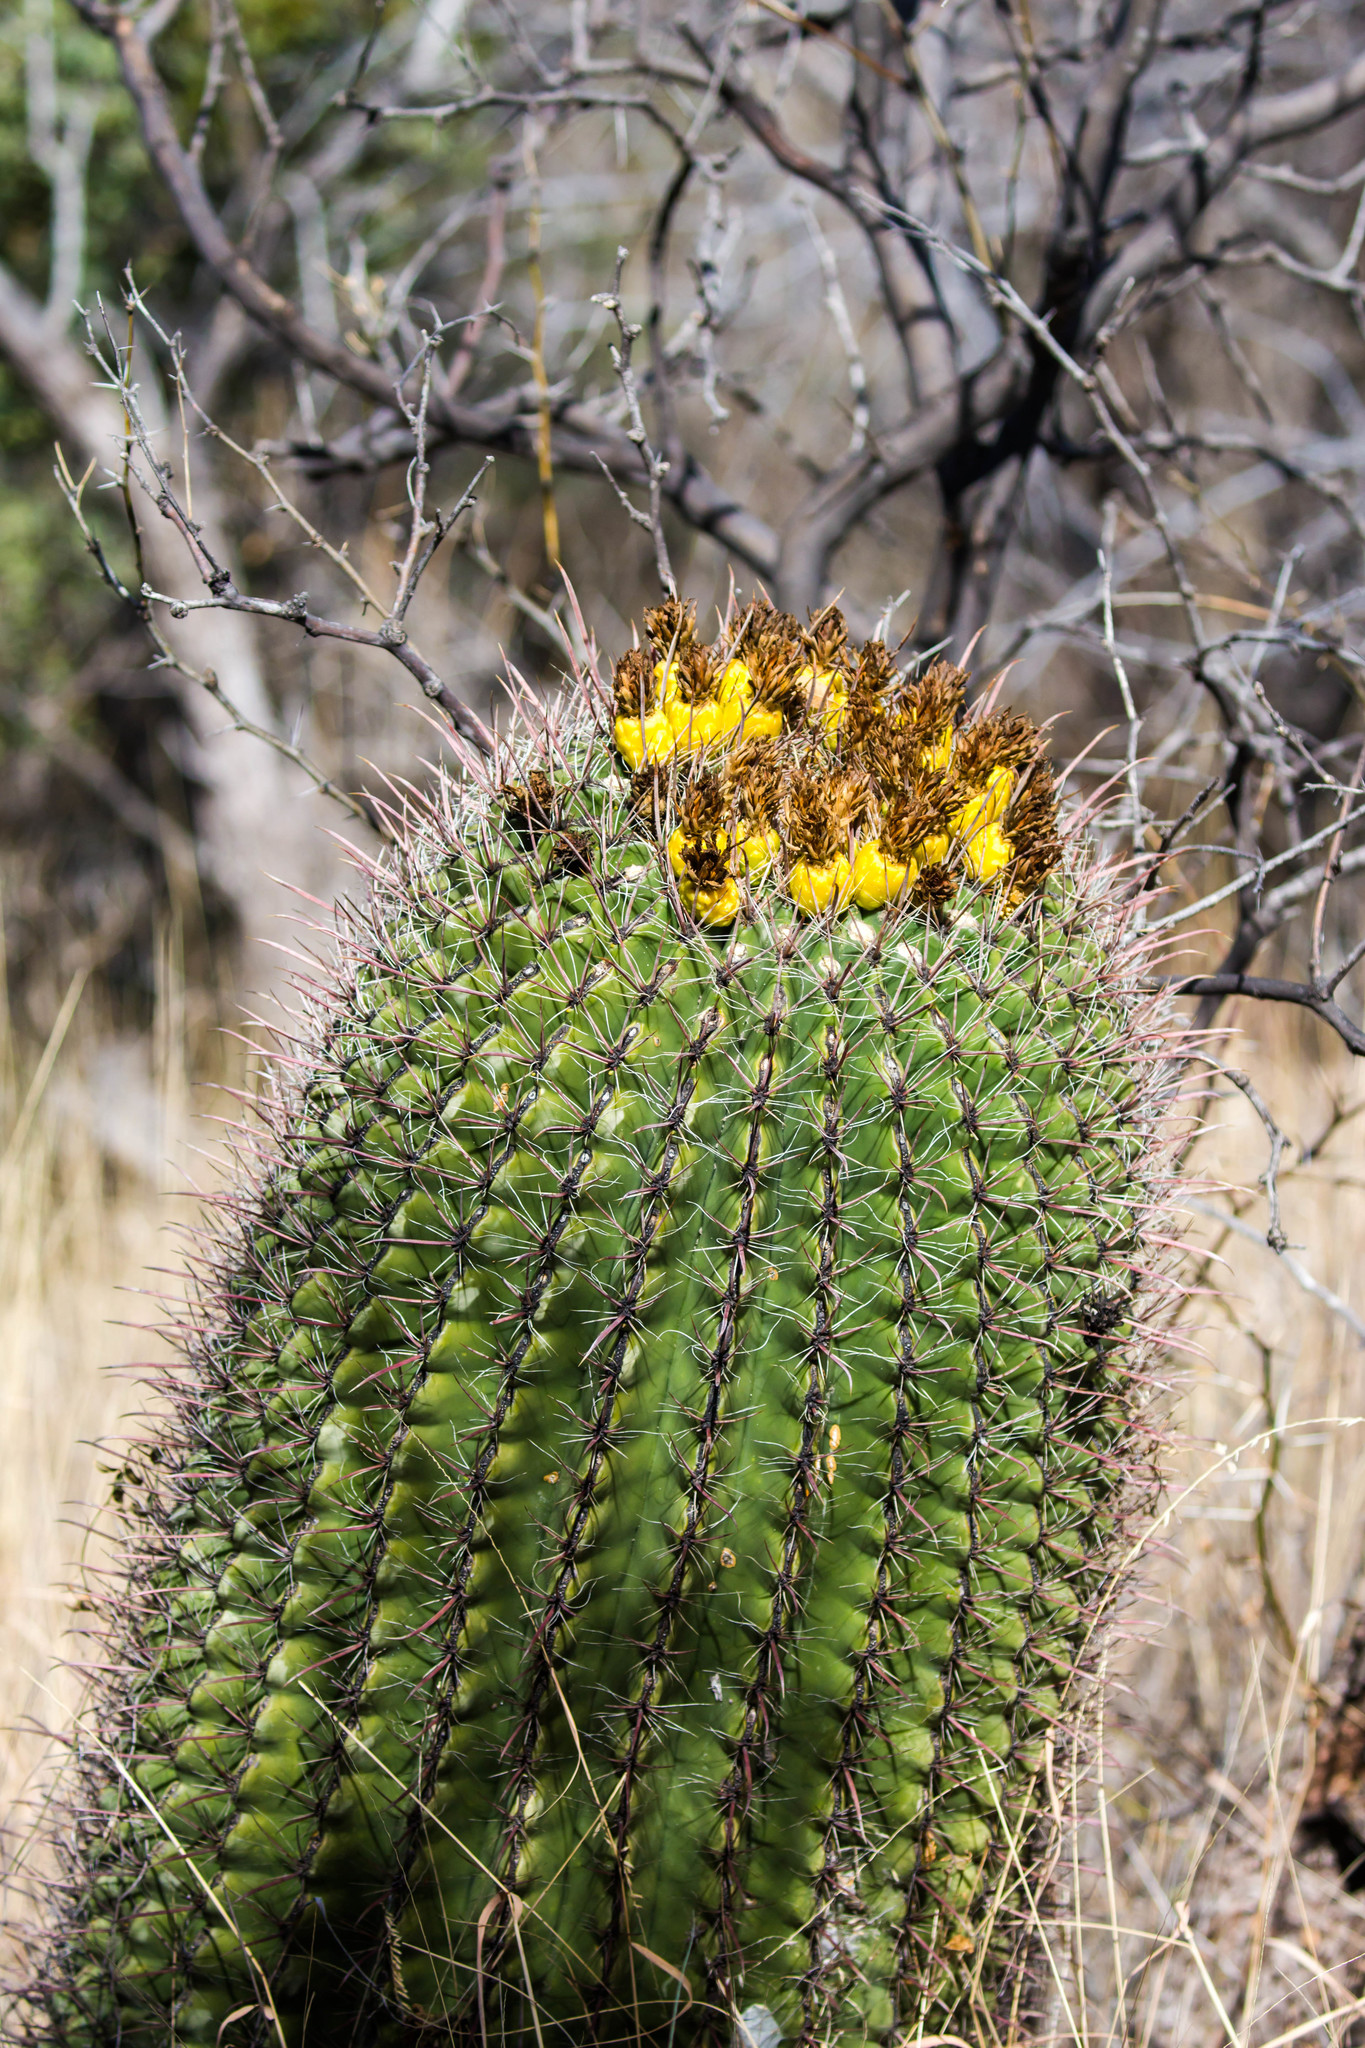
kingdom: Plantae
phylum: Tracheophyta
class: Magnoliopsida
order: Caryophyllales
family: Cactaceae
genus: Ferocactus
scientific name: Ferocactus wislizeni
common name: Candy barrel cactus
